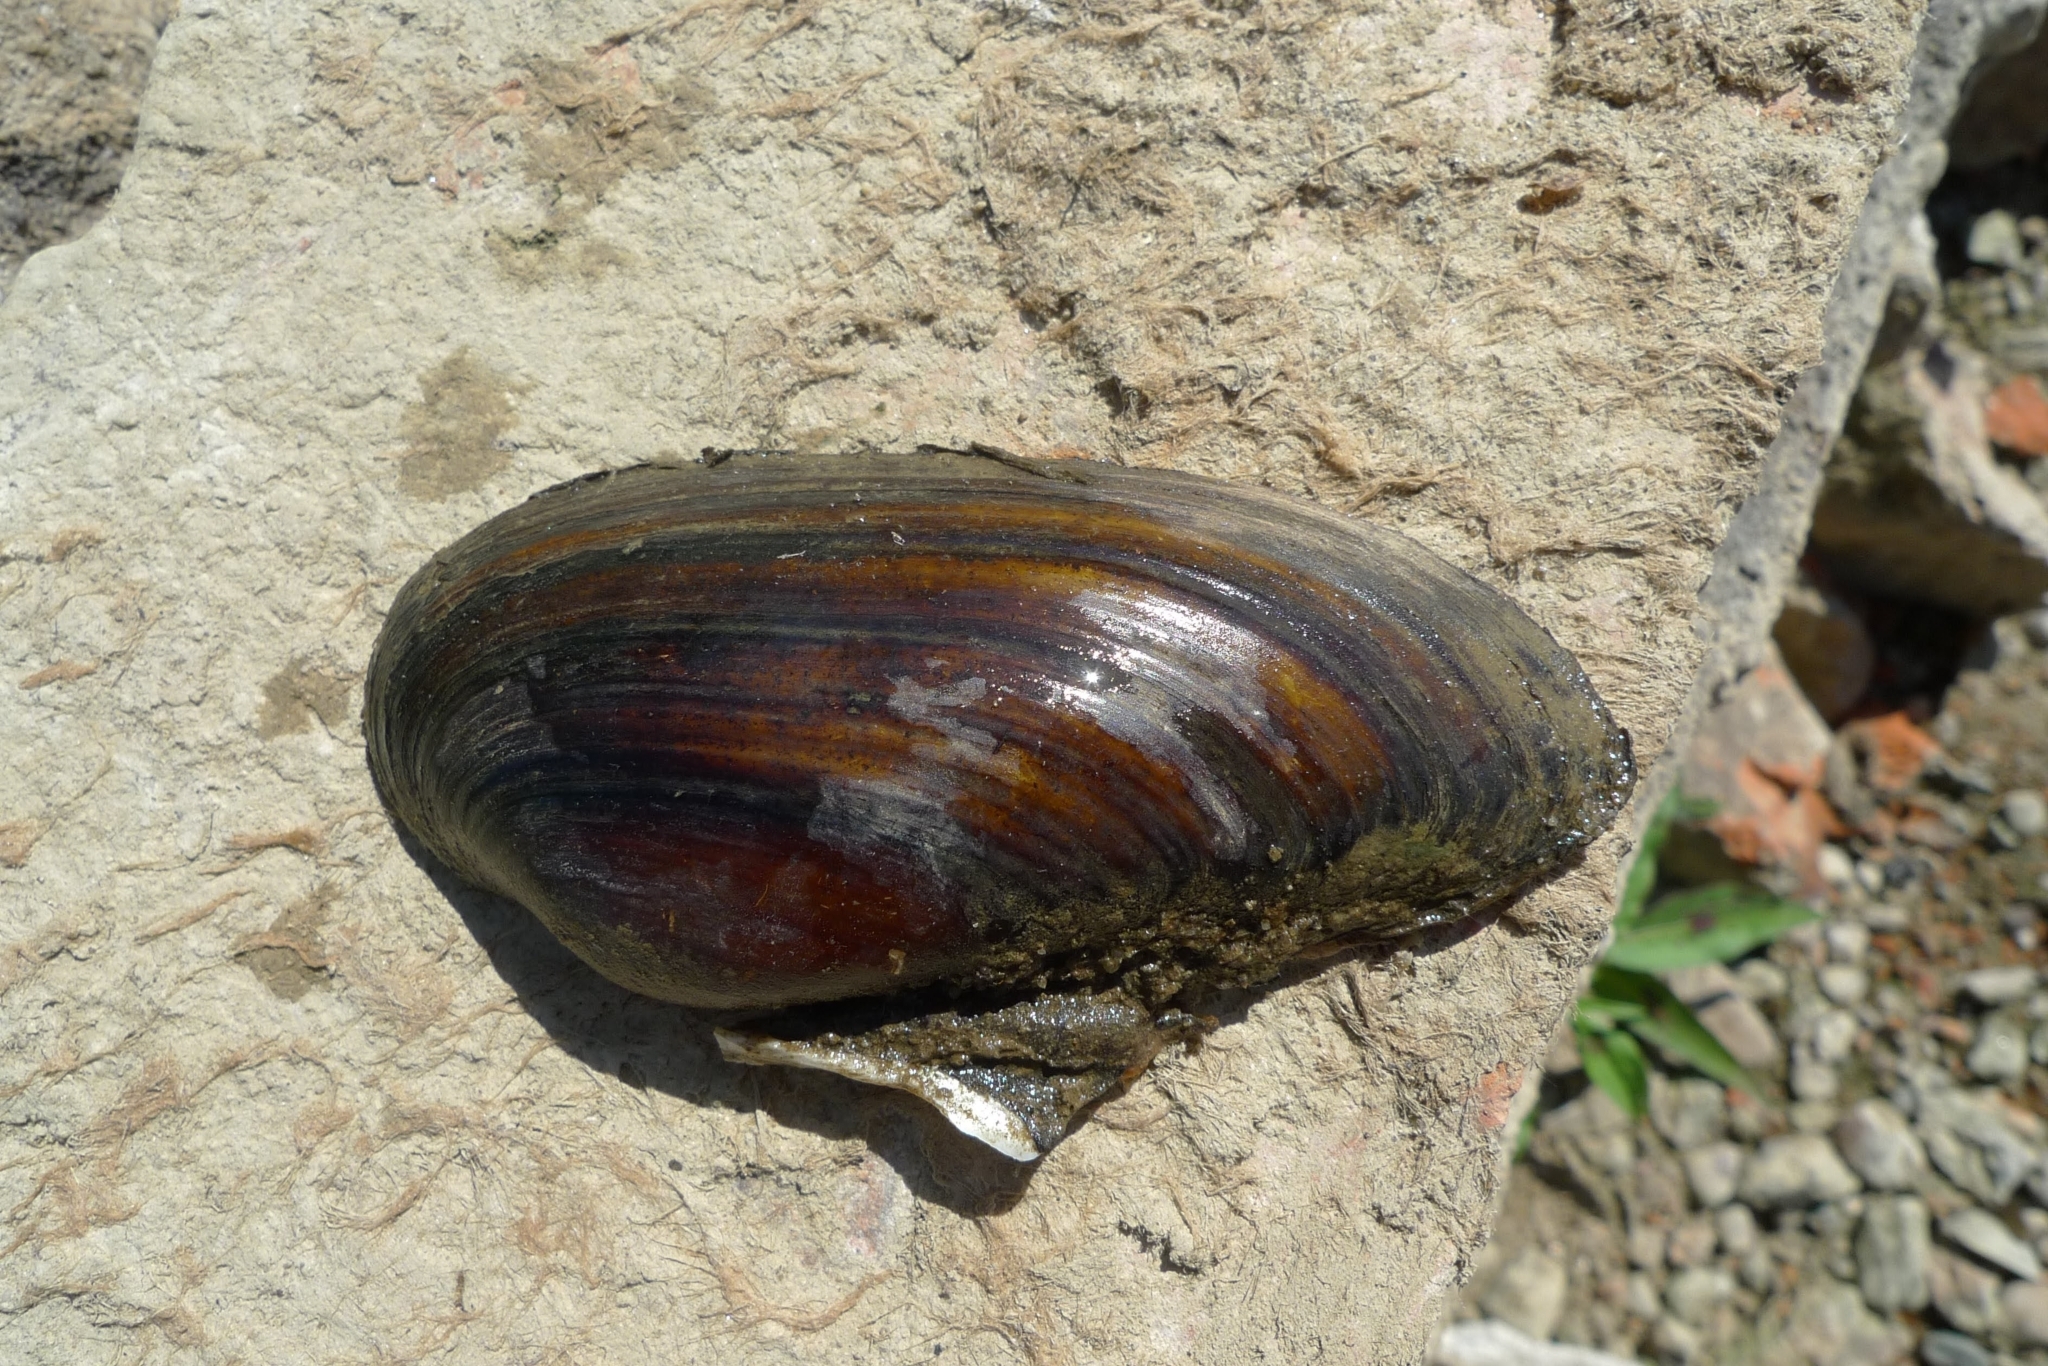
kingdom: Animalia
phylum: Mollusca
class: Bivalvia
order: Unionida
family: Unionidae
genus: Unio
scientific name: Unio pictorum
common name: Painter's mussel
